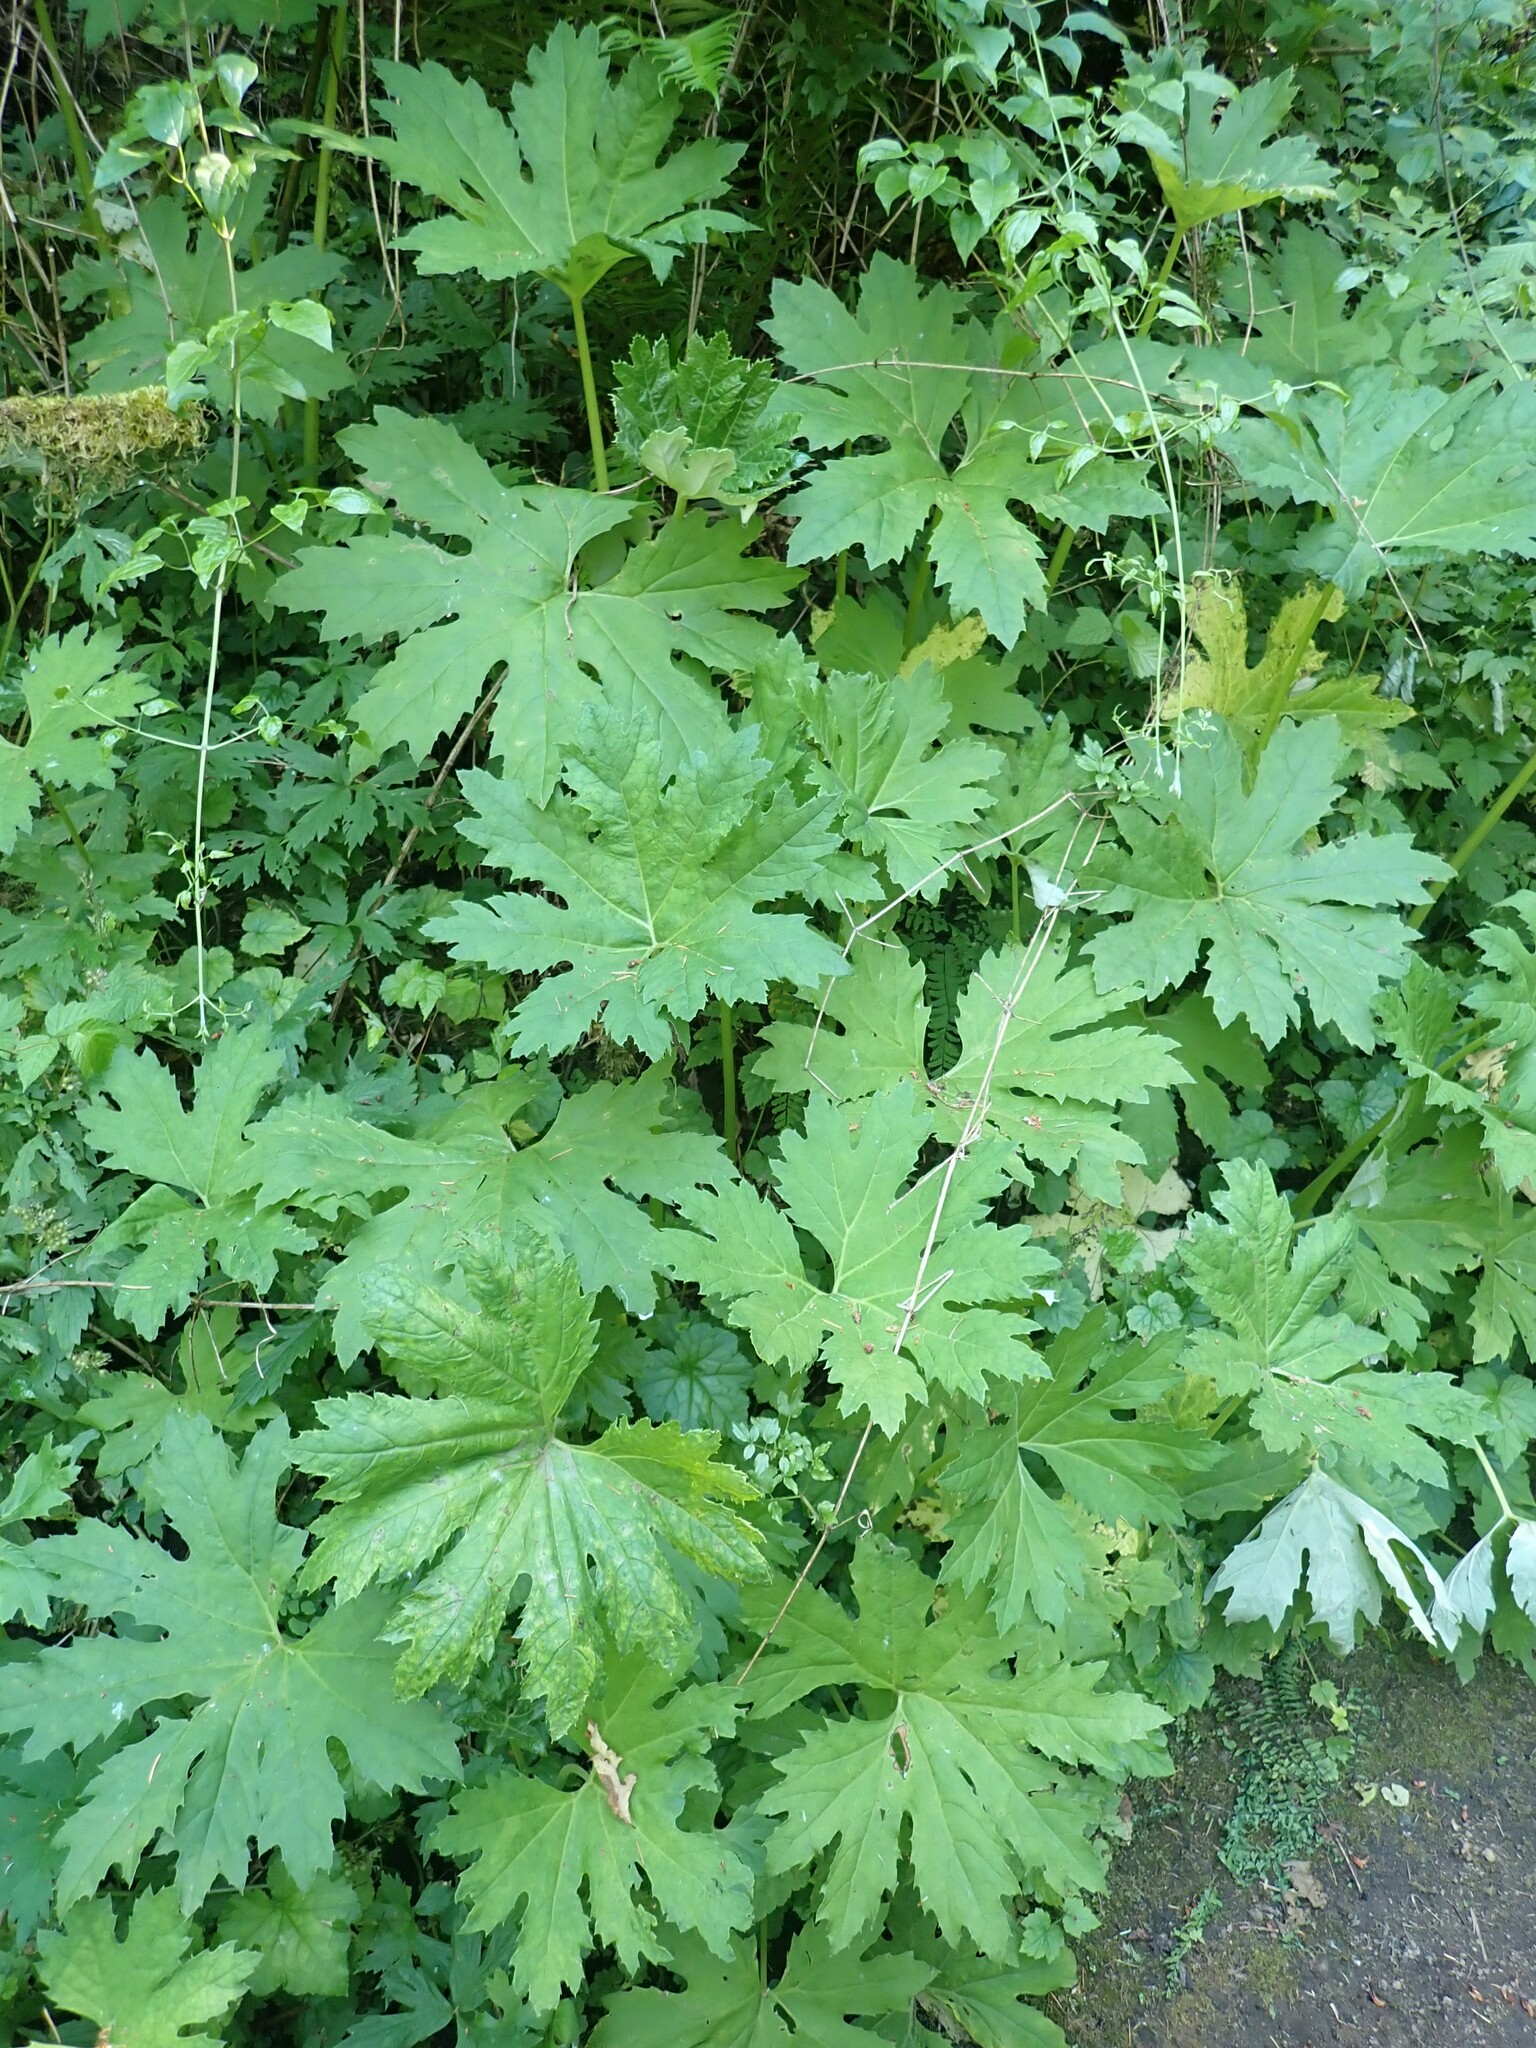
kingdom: Plantae
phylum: Tracheophyta
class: Magnoliopsida
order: Asterales
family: Asteraceae
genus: Petasites
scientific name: Petasites frigidus
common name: Arctic butterbur
